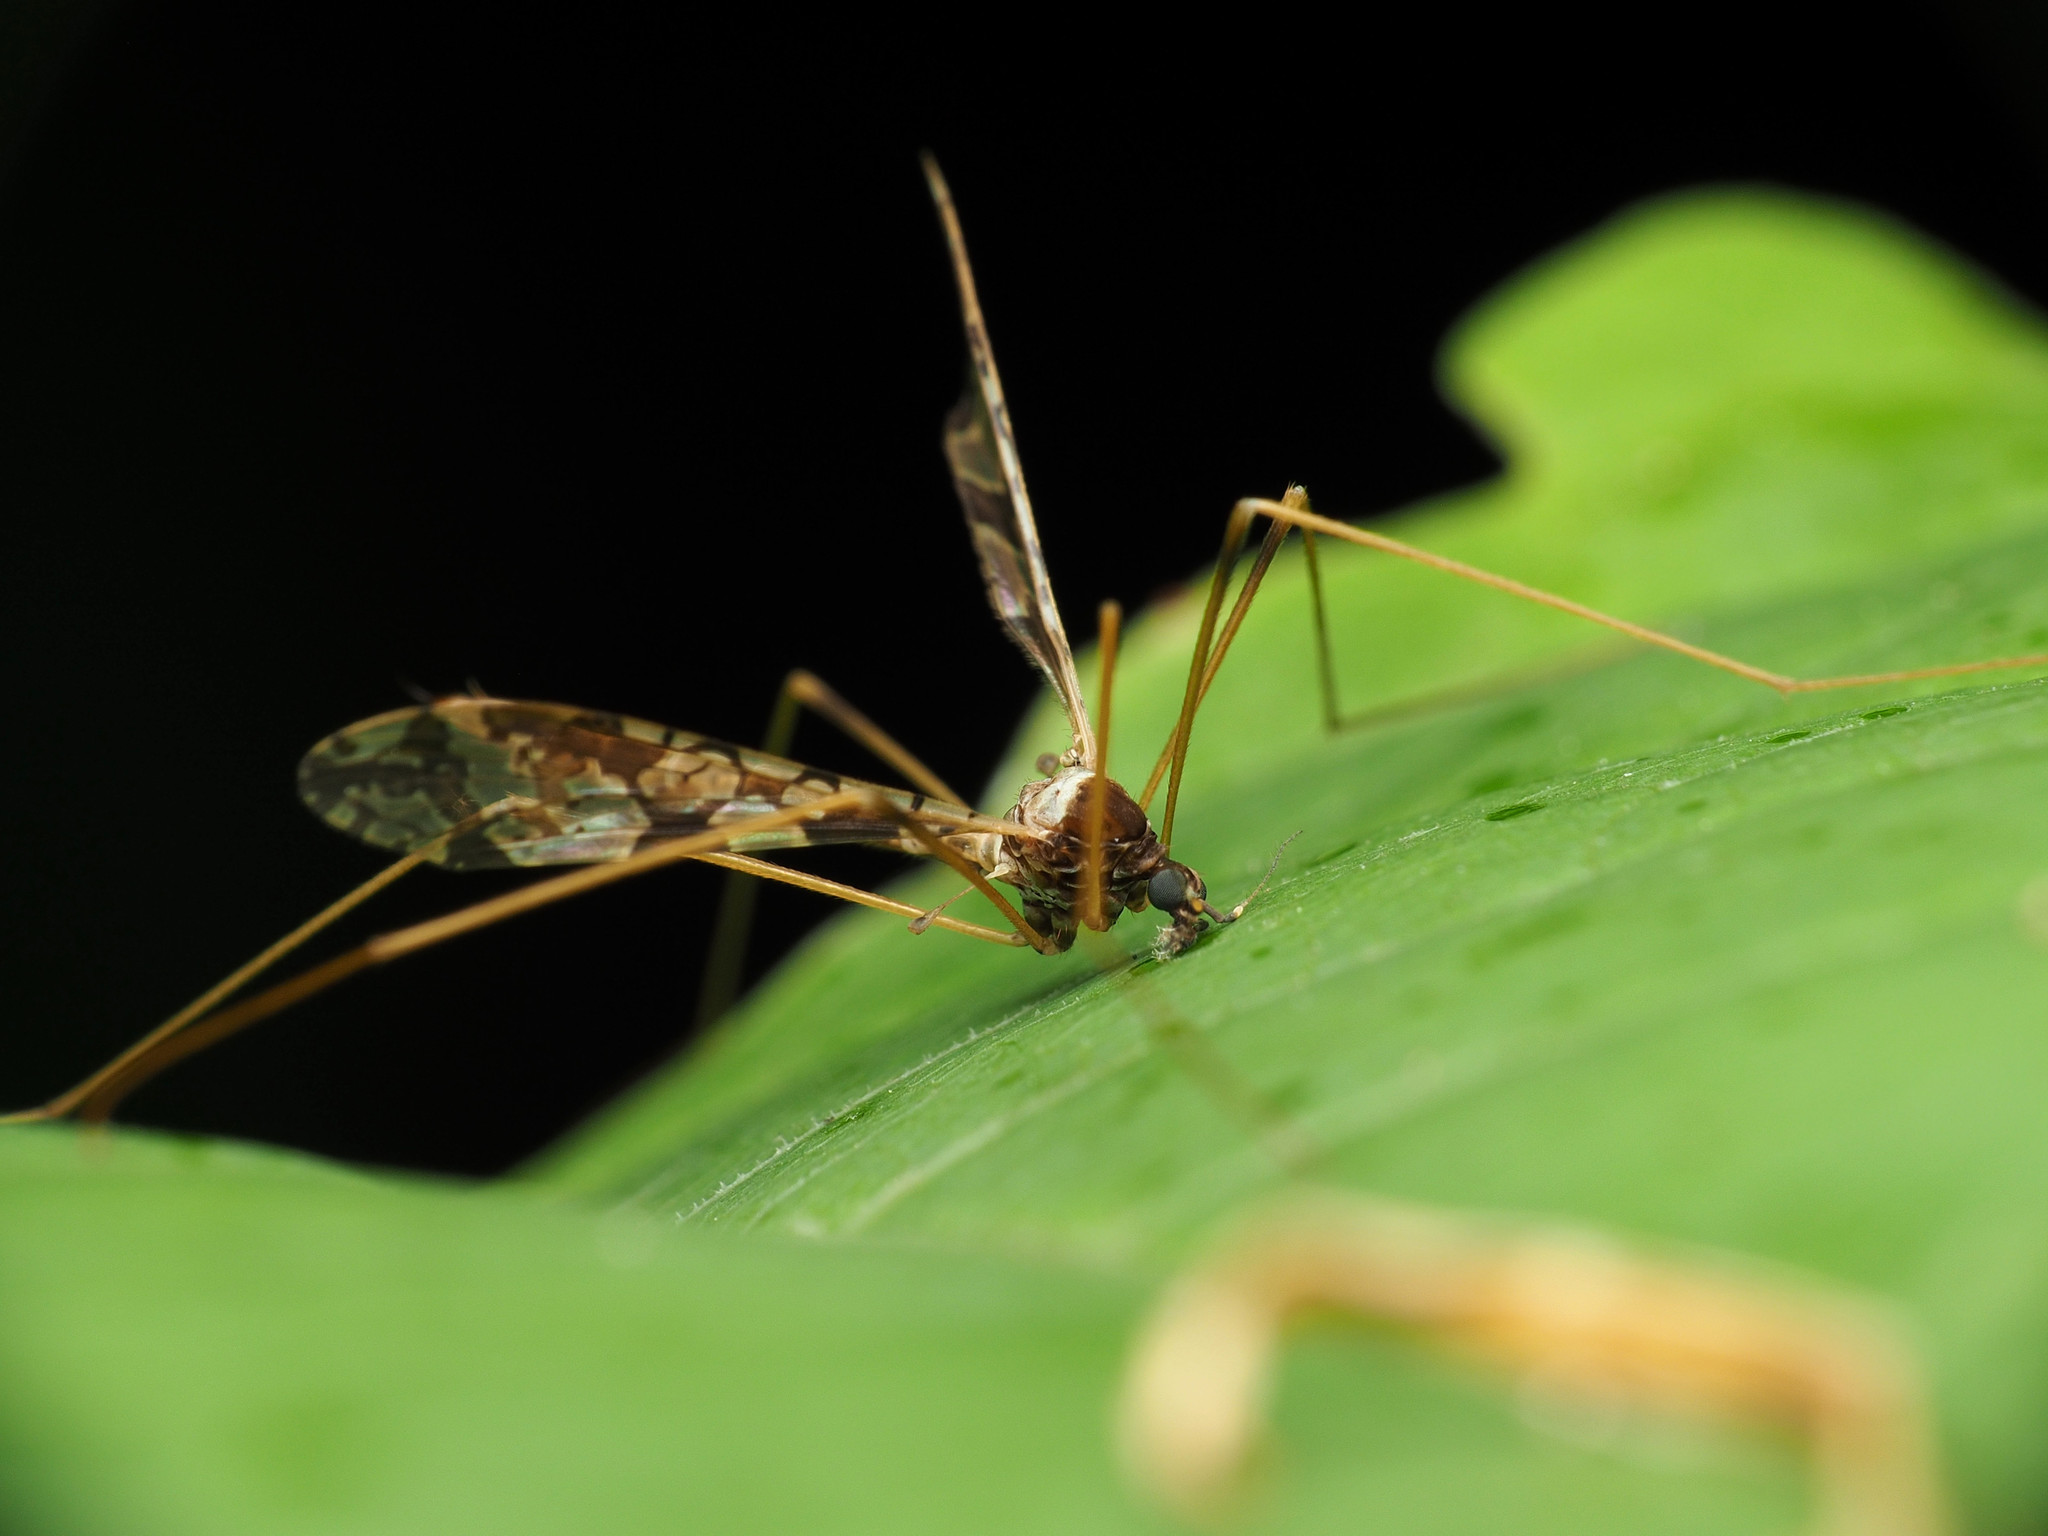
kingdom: Animalia
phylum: Arthropoda
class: Insecta
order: Diptera
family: Limoniidae
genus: Epiphragma
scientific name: Epiphragma solatrix
